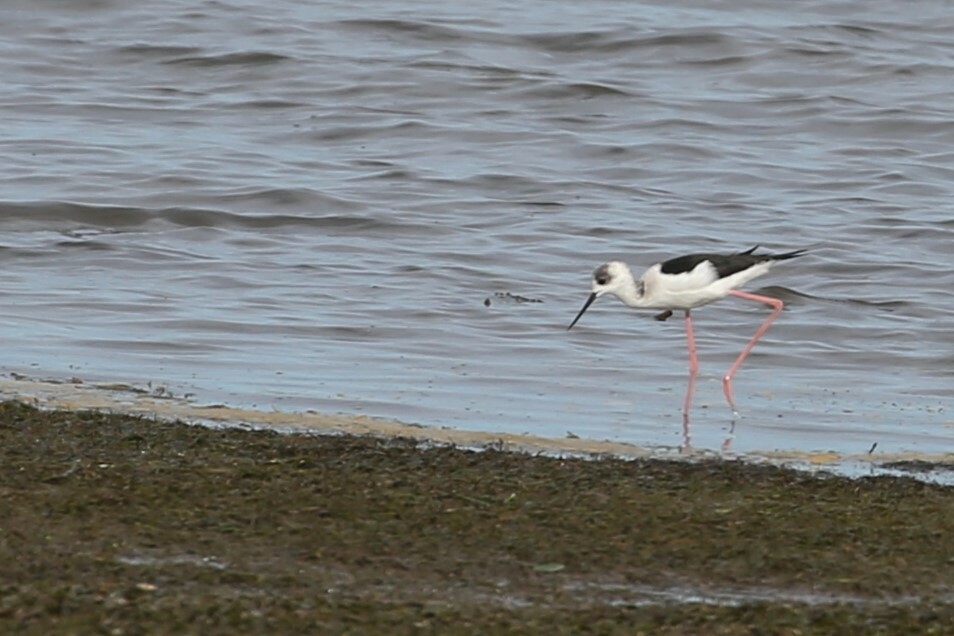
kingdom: Animalia
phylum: Chordata
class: Aves
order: Charadriiformes
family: Recurvirostridae
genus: Himantopus
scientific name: Himantopus leucocephalus
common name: White-headed stilt
